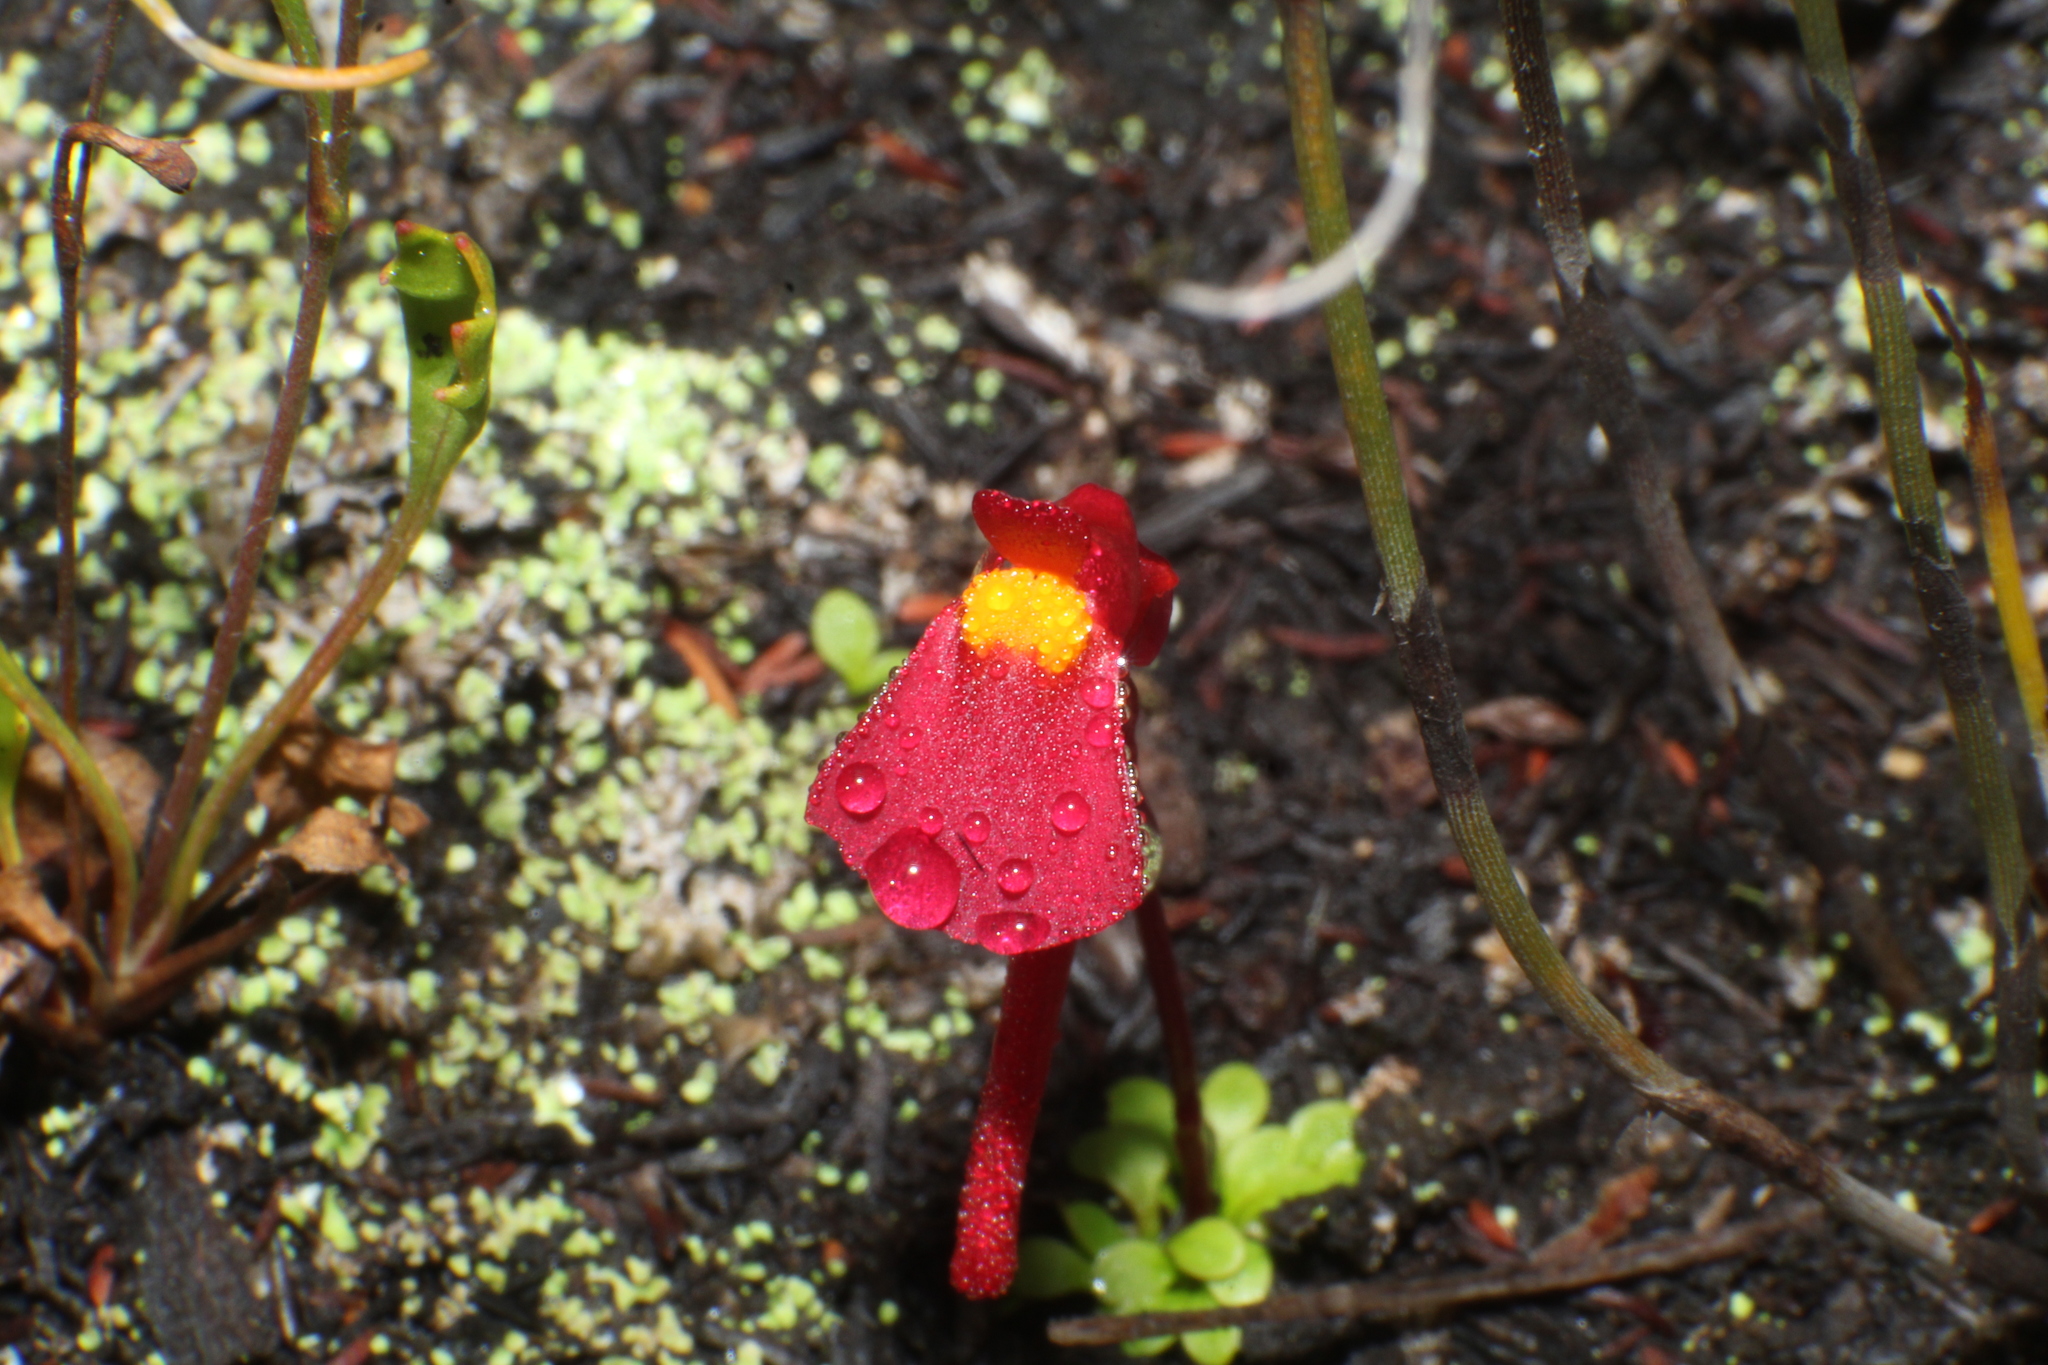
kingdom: Plantae
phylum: Tracheophyta
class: Magnoliopsida
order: Lamiales
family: Lentibulariaceae
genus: Utricularia
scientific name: Utricularia menziesii
